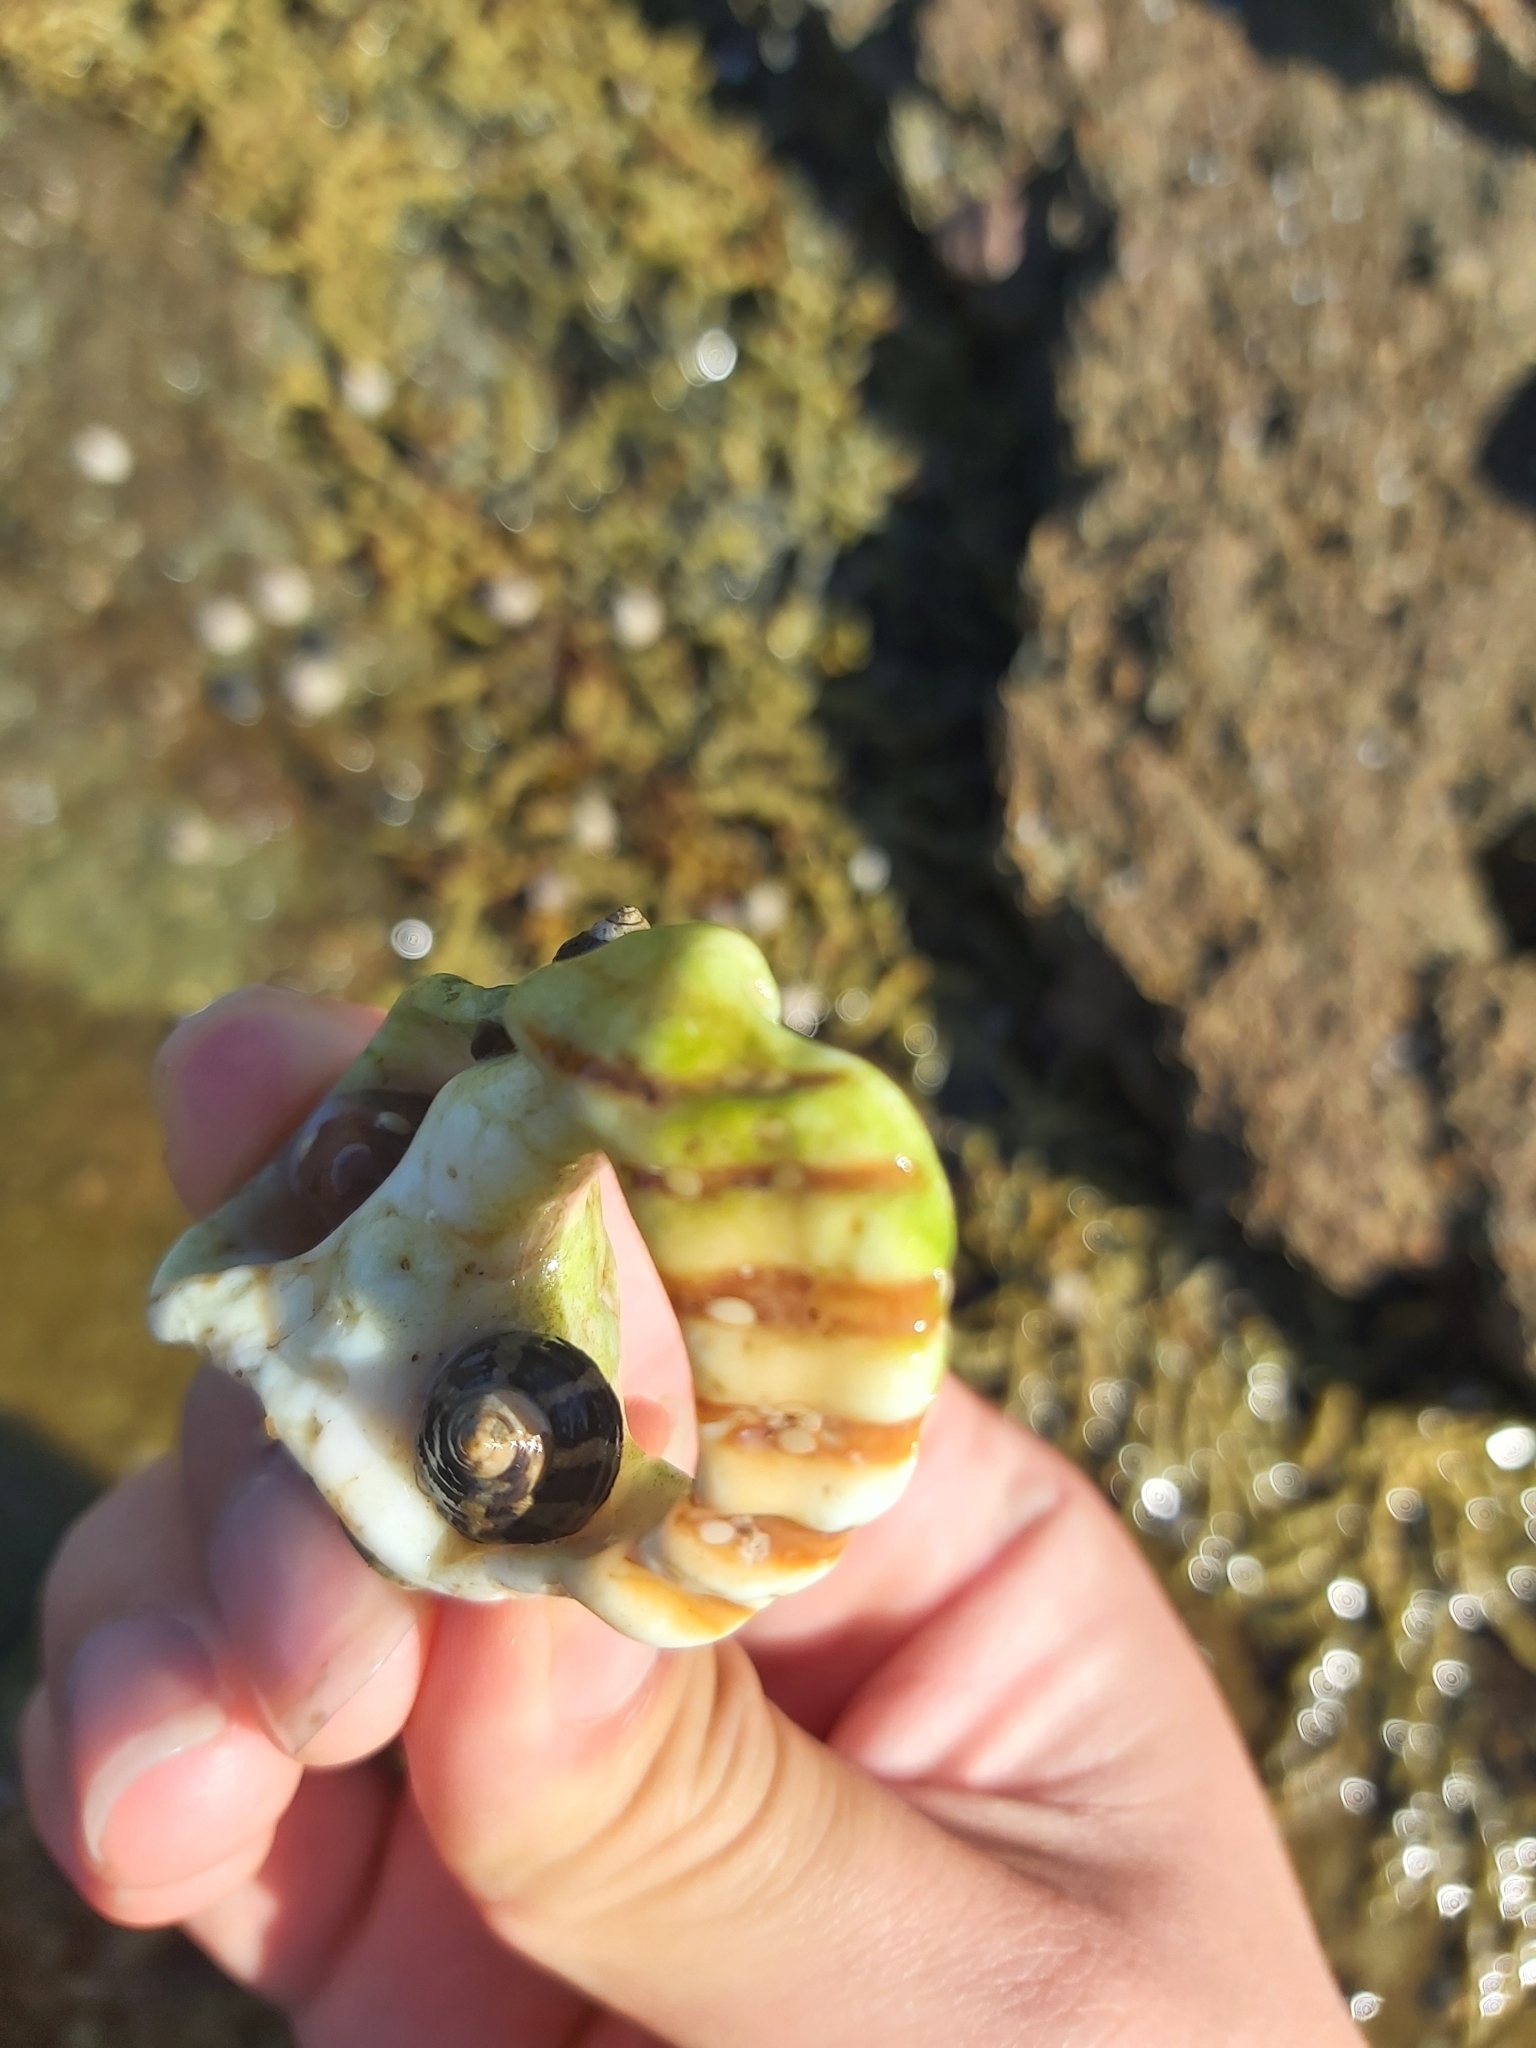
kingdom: Animalia
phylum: Mollusca
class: Gastropoda
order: Littorinimorpha
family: Cymatiidae
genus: Cabestana
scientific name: Cabestana spengleri
